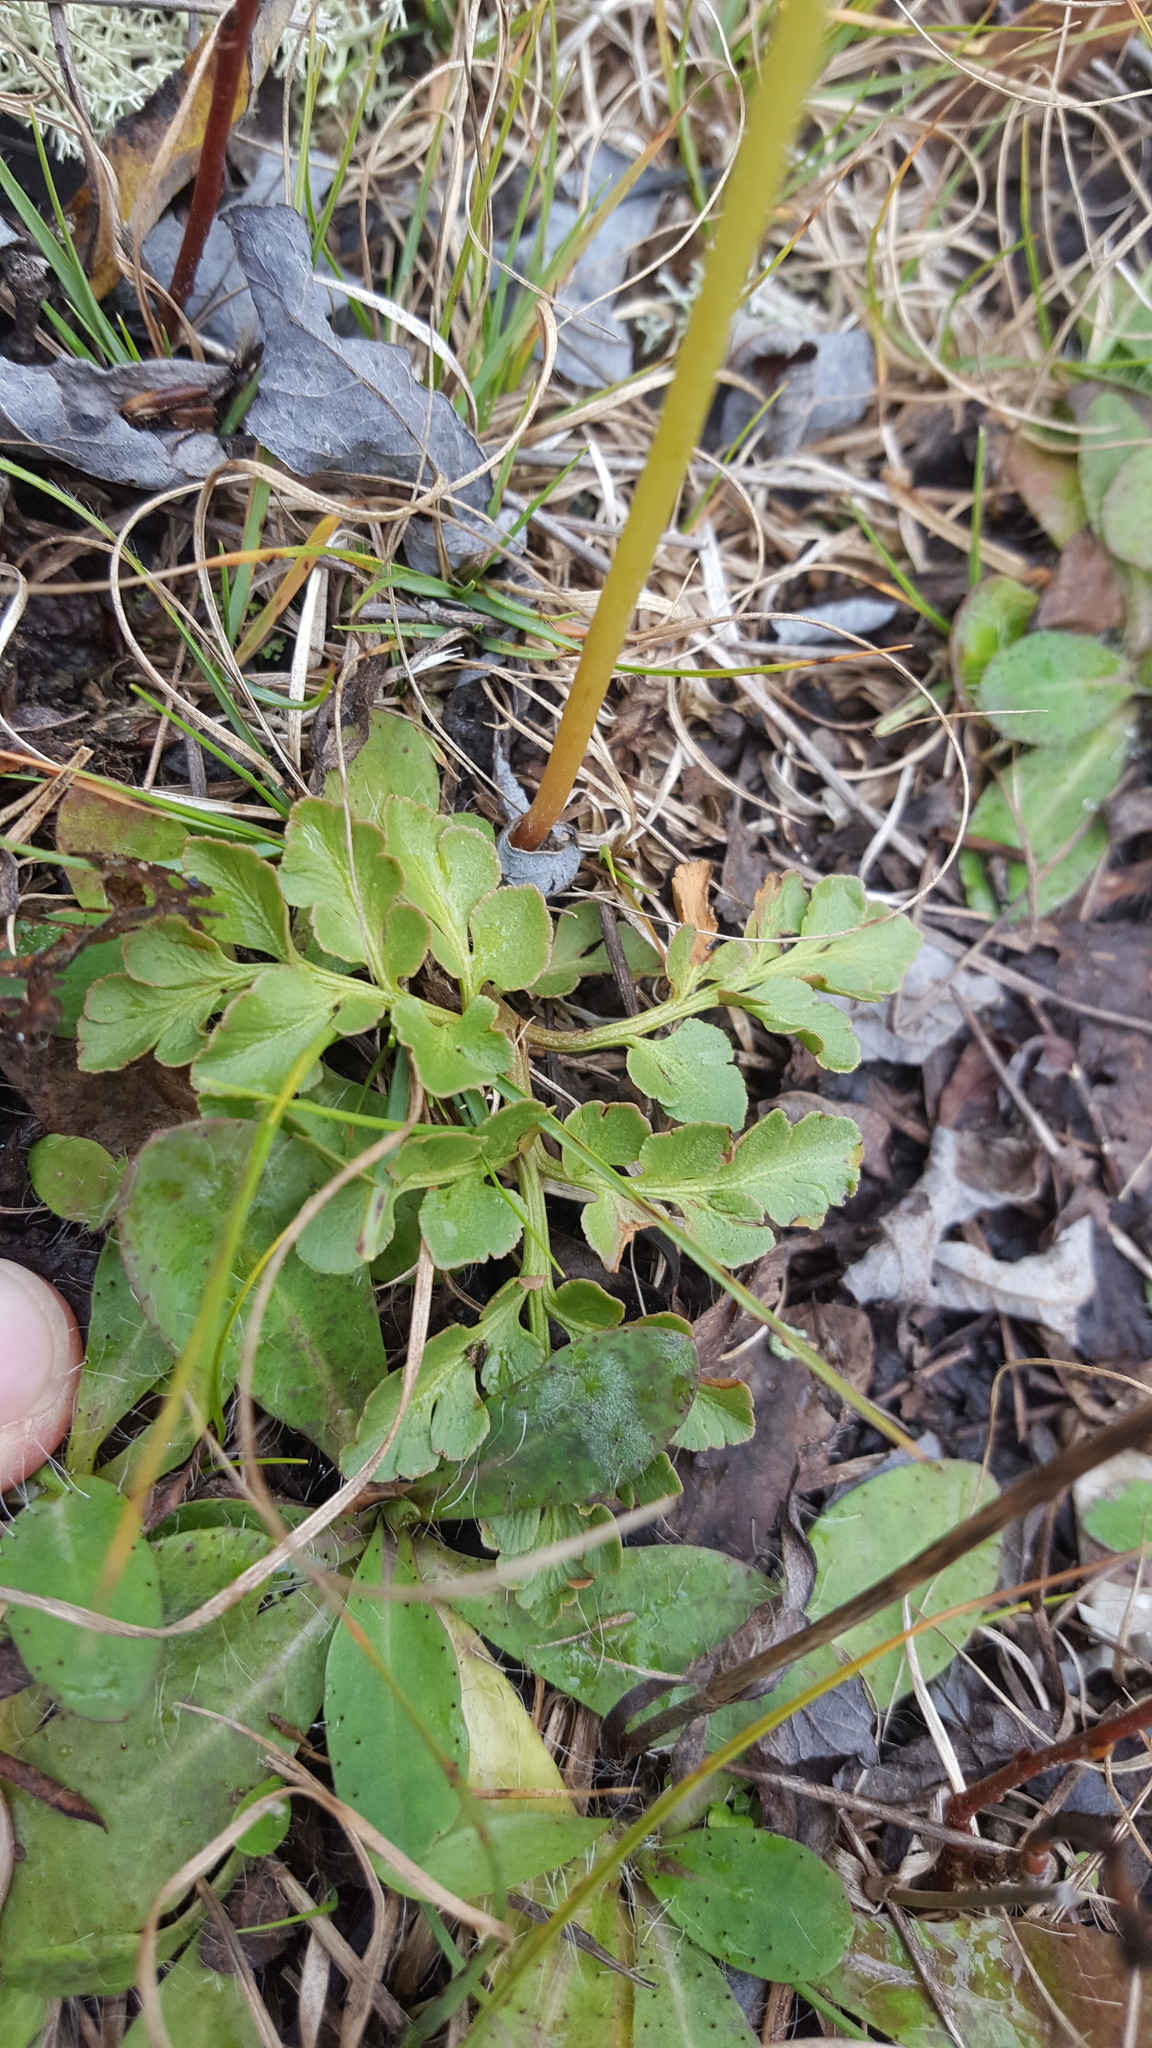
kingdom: Plantae
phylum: Tracheophyta
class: Polypodiopsida
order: Ophioglossales
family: Ophioglossaceae
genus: Sceptridium
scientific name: Sceptridium multifidum
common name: Leathery grape fern
